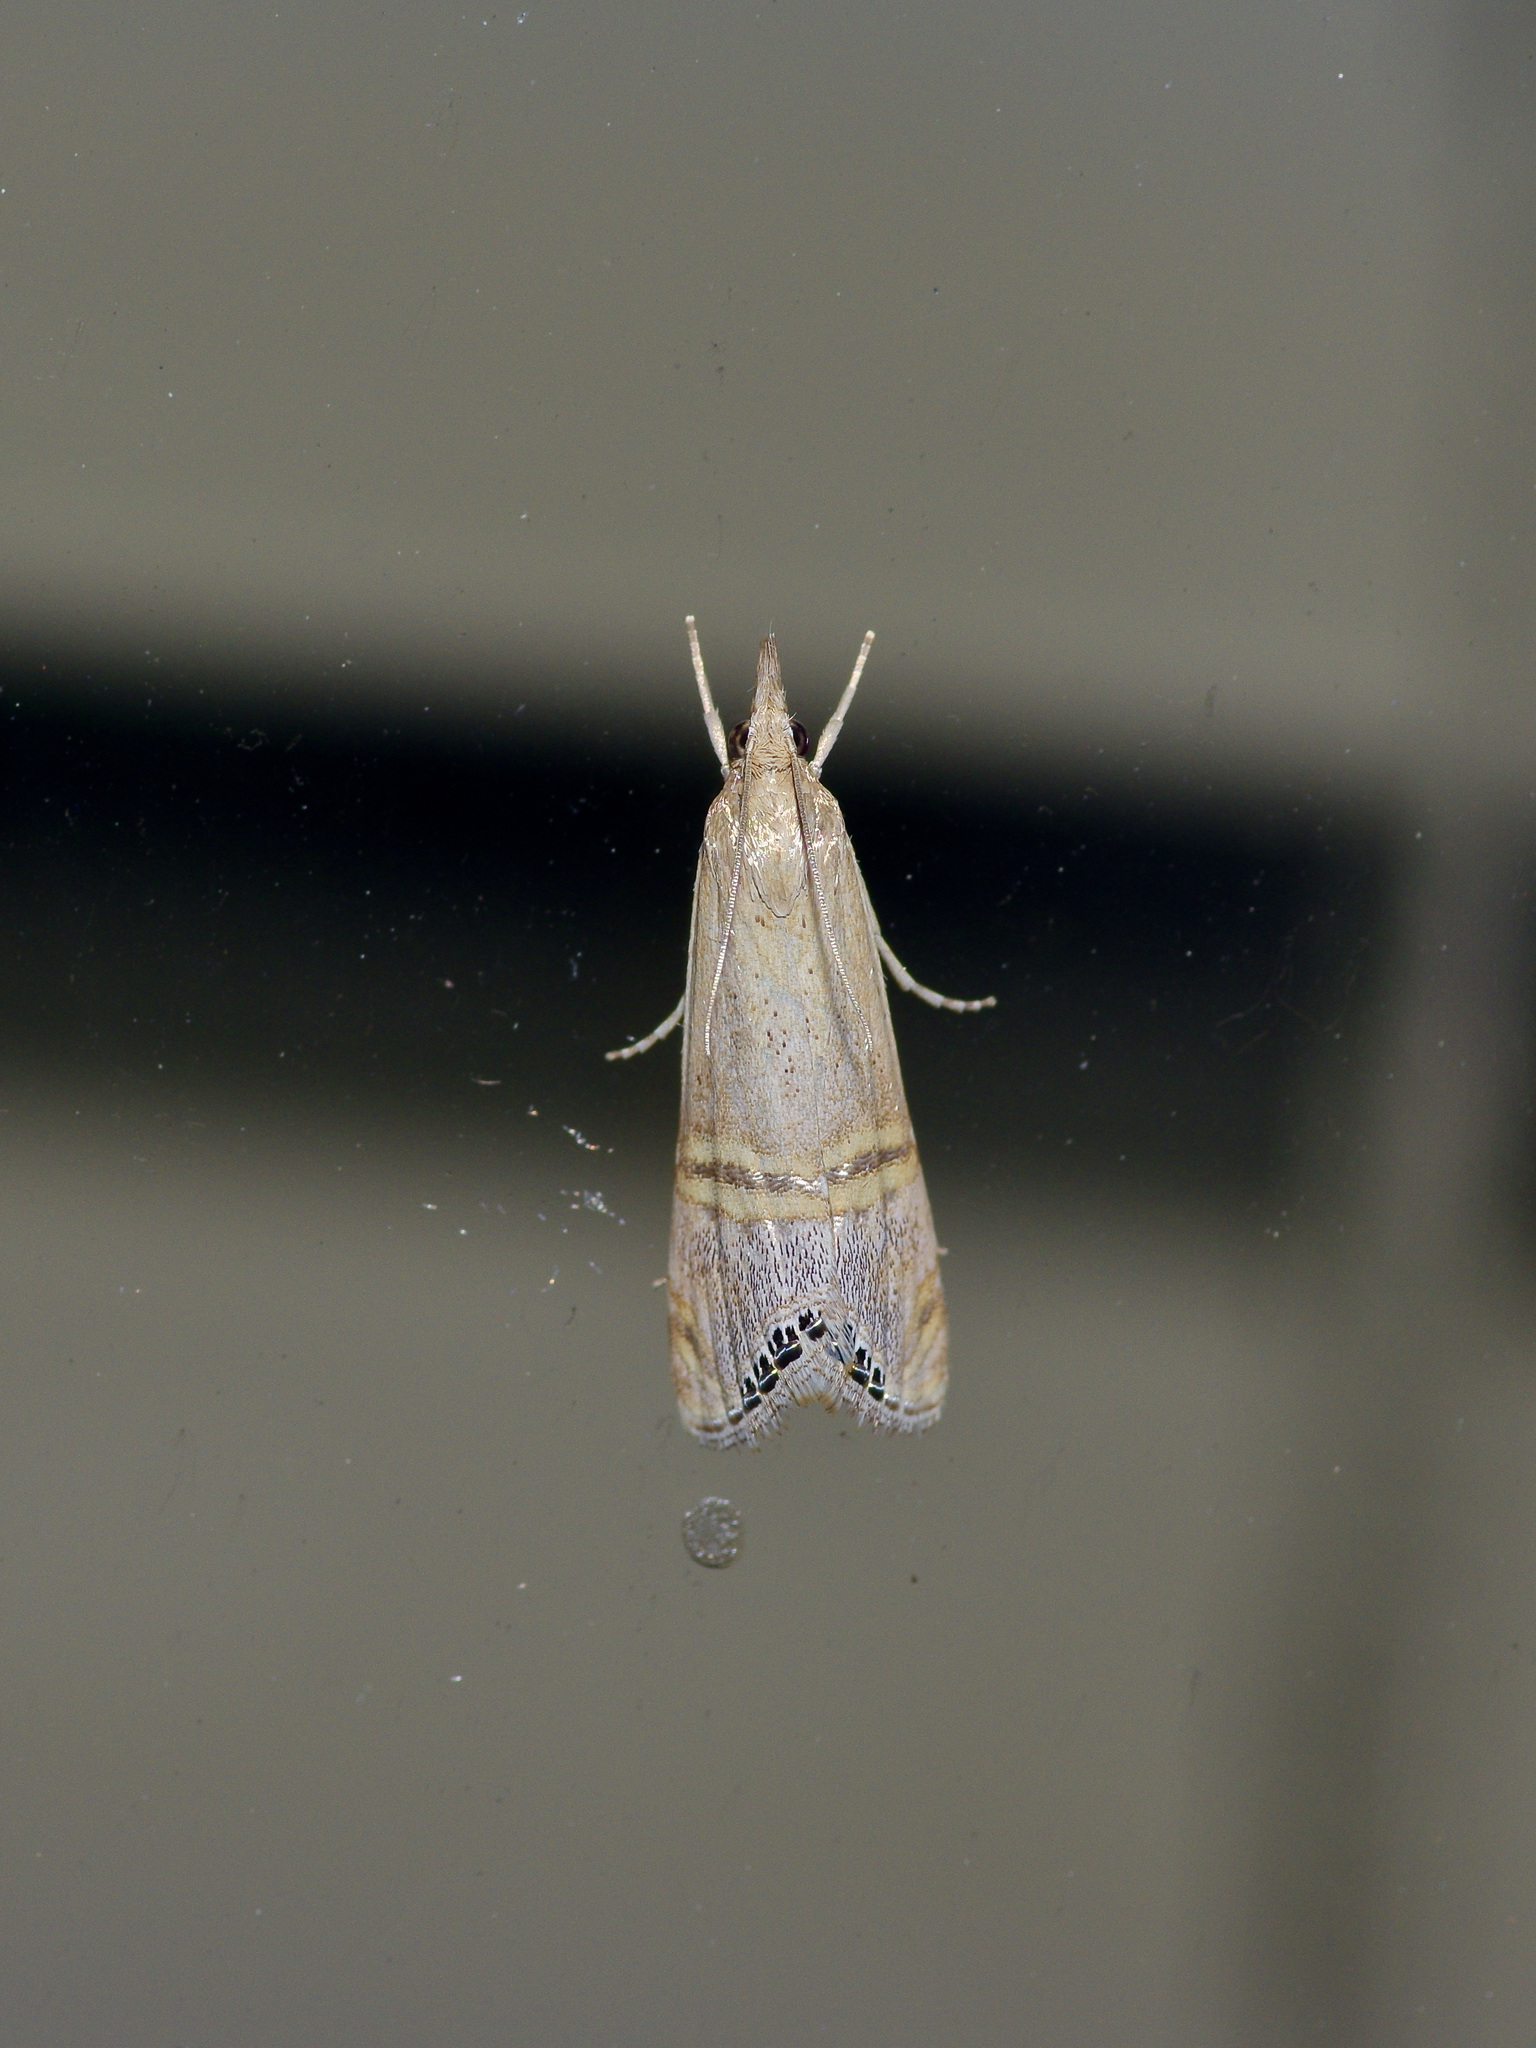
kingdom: Animalia
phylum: Arthropoda
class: Insecta
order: Lepidoptera
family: Crambidae
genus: Euchromius
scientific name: Euchromius ocellea
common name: Necklace veneer moth
